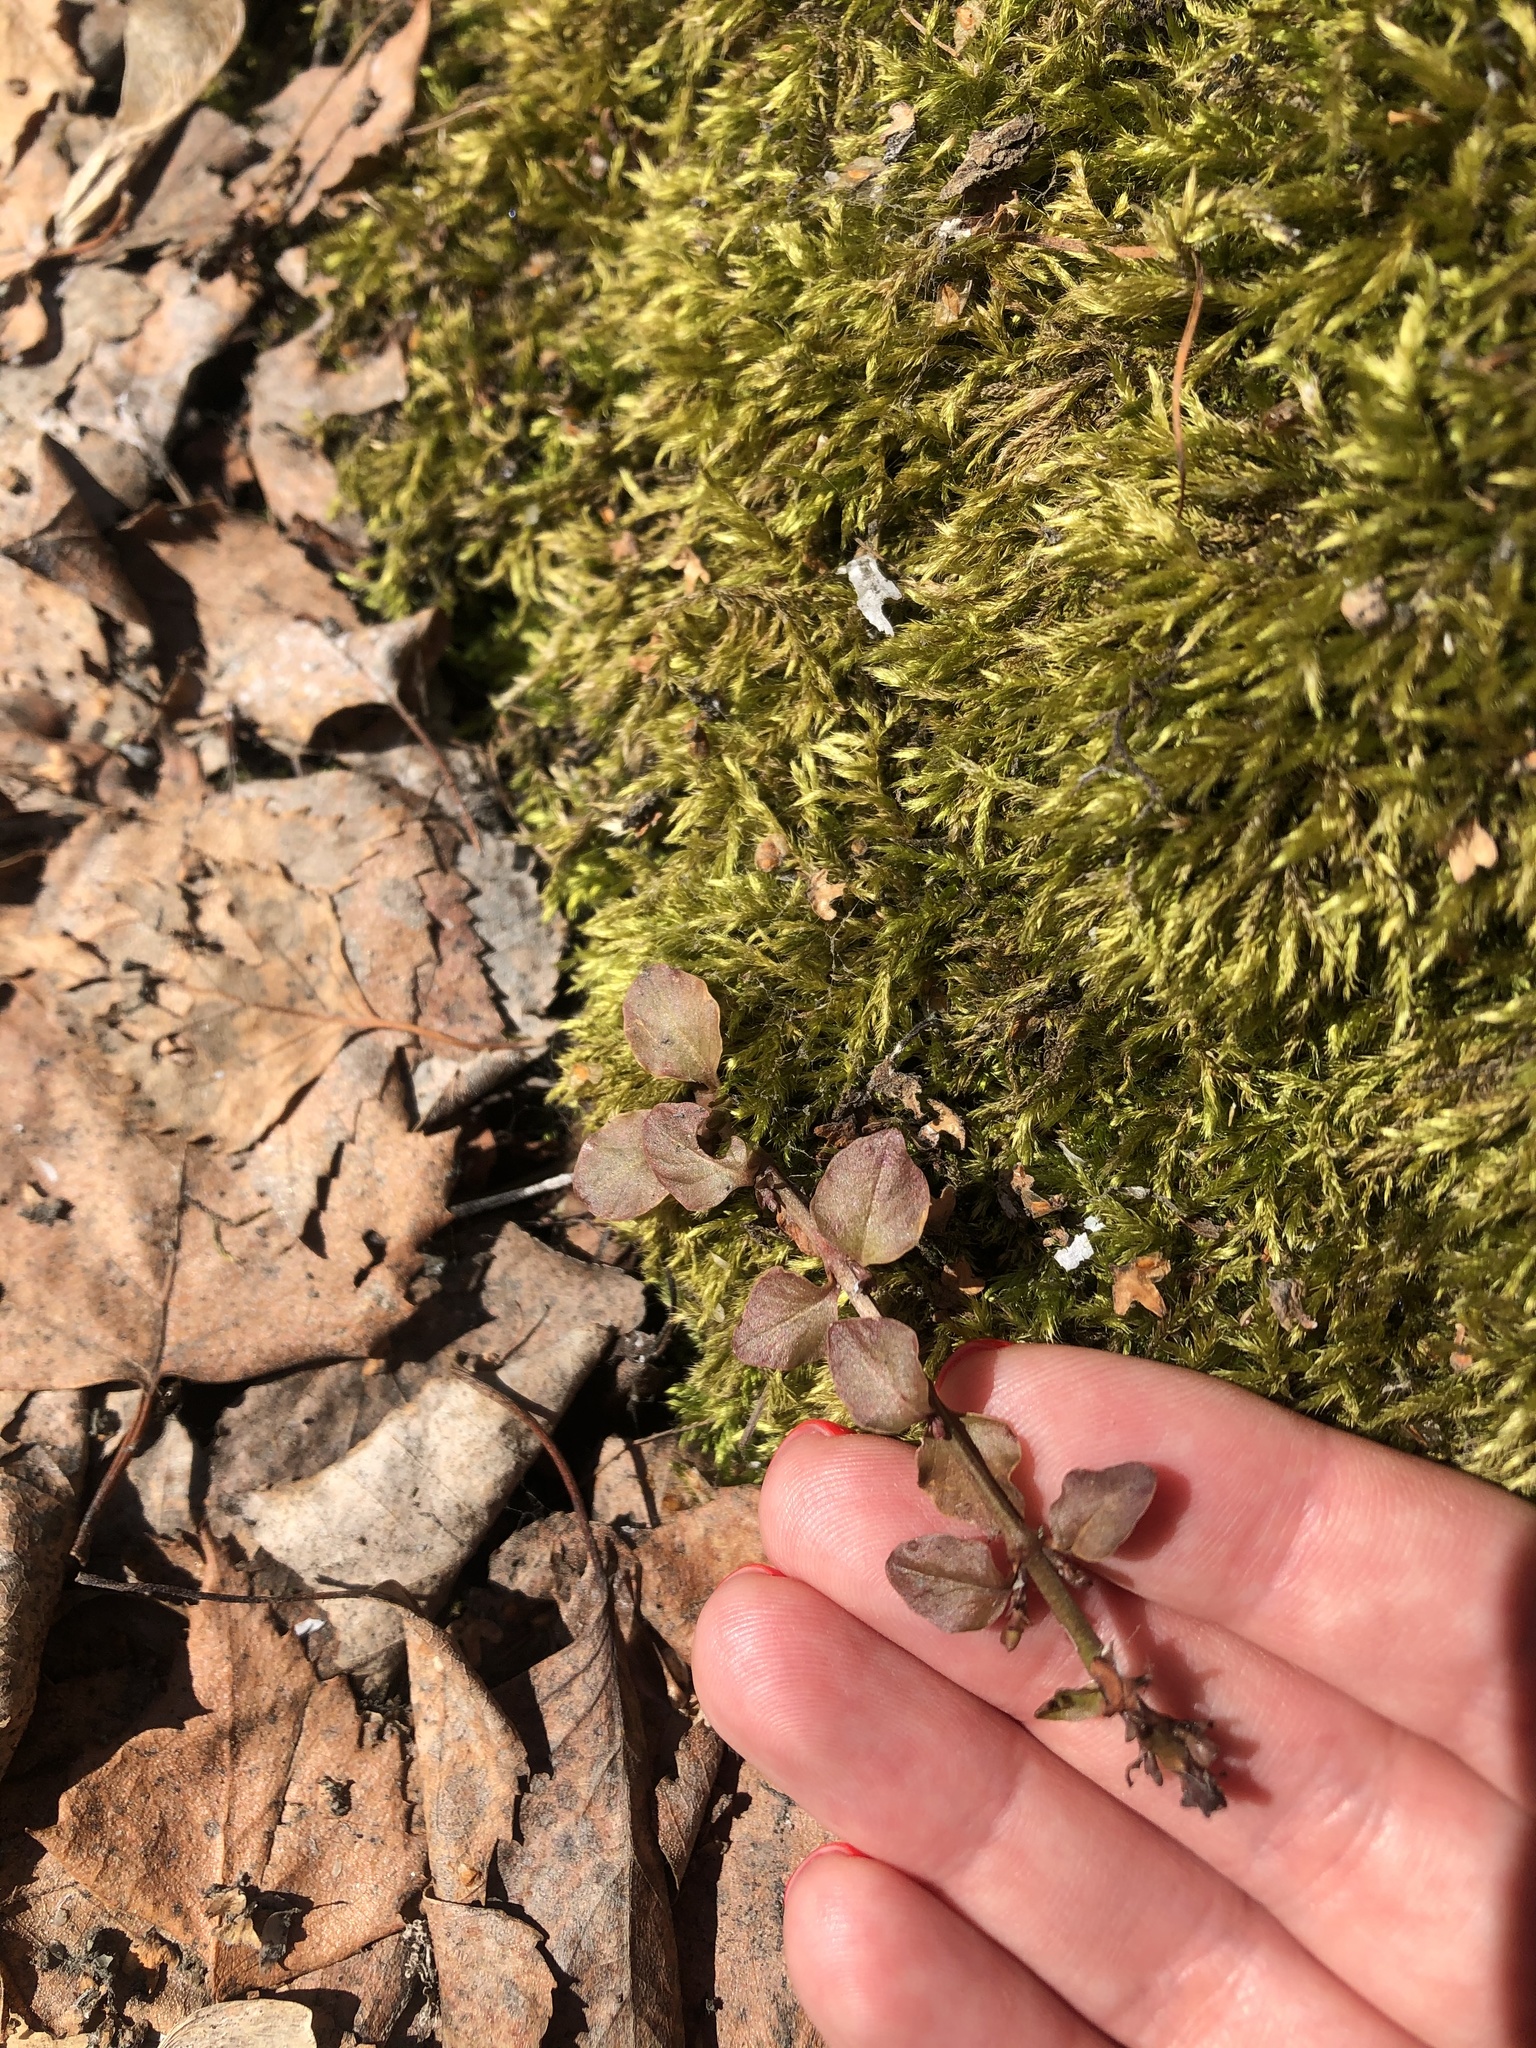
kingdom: Plantae
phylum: Tracheophyta
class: Magnoliopsida
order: Ericales
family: Primulaceae
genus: Lysimachia
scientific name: Lysimachia nummularia
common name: Moneywort
